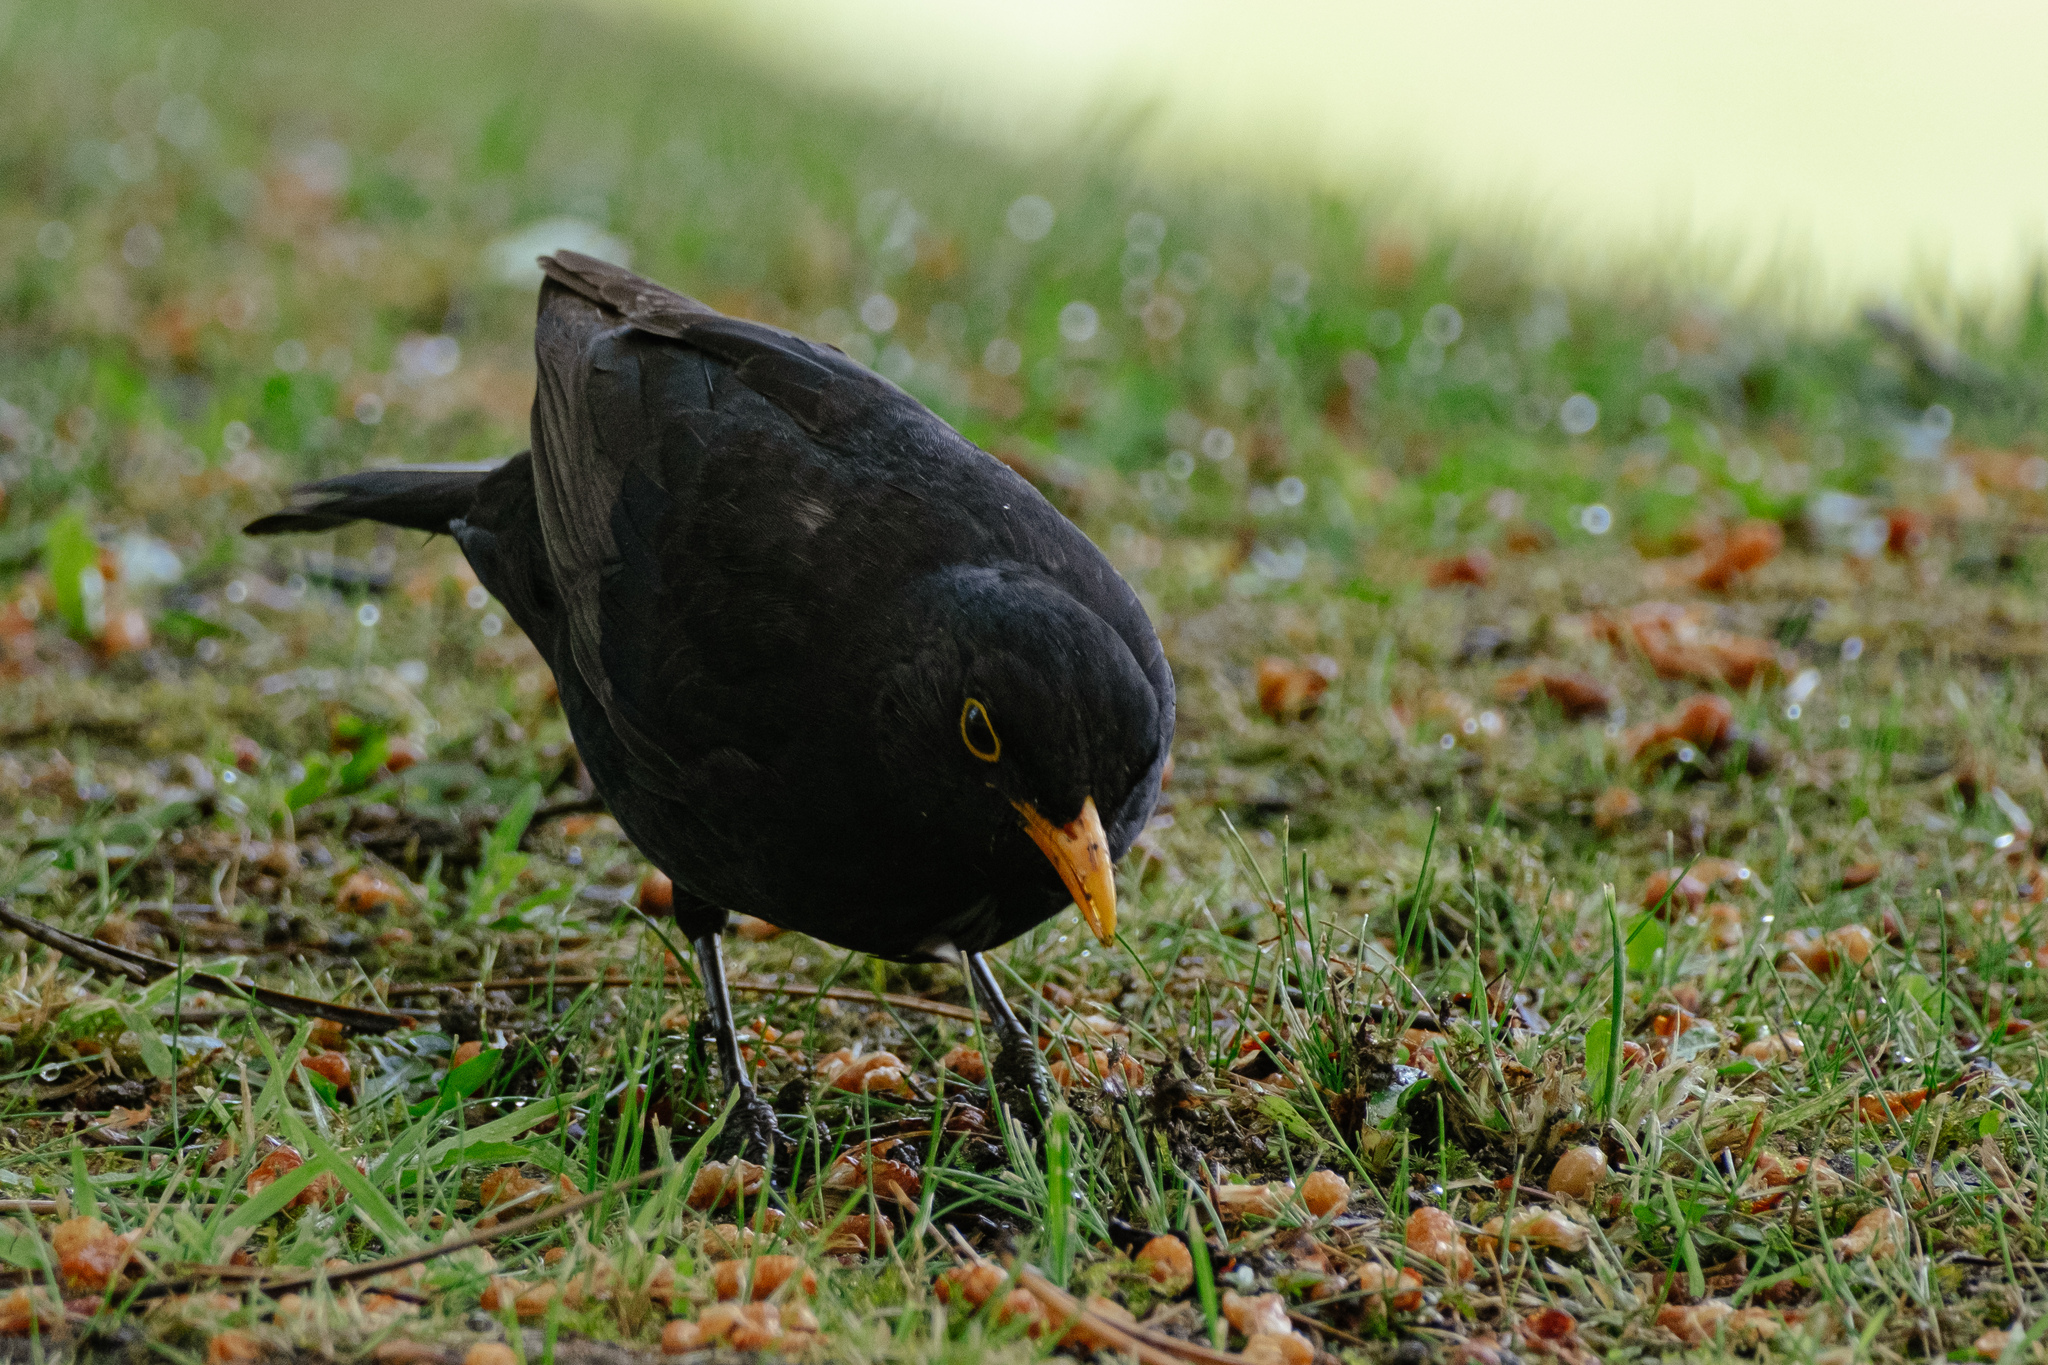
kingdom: Animalia
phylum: Chordata
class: Aves
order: Passeriformes
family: Turdidae
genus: Turdus
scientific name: Turdus merula
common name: Common blackbird
